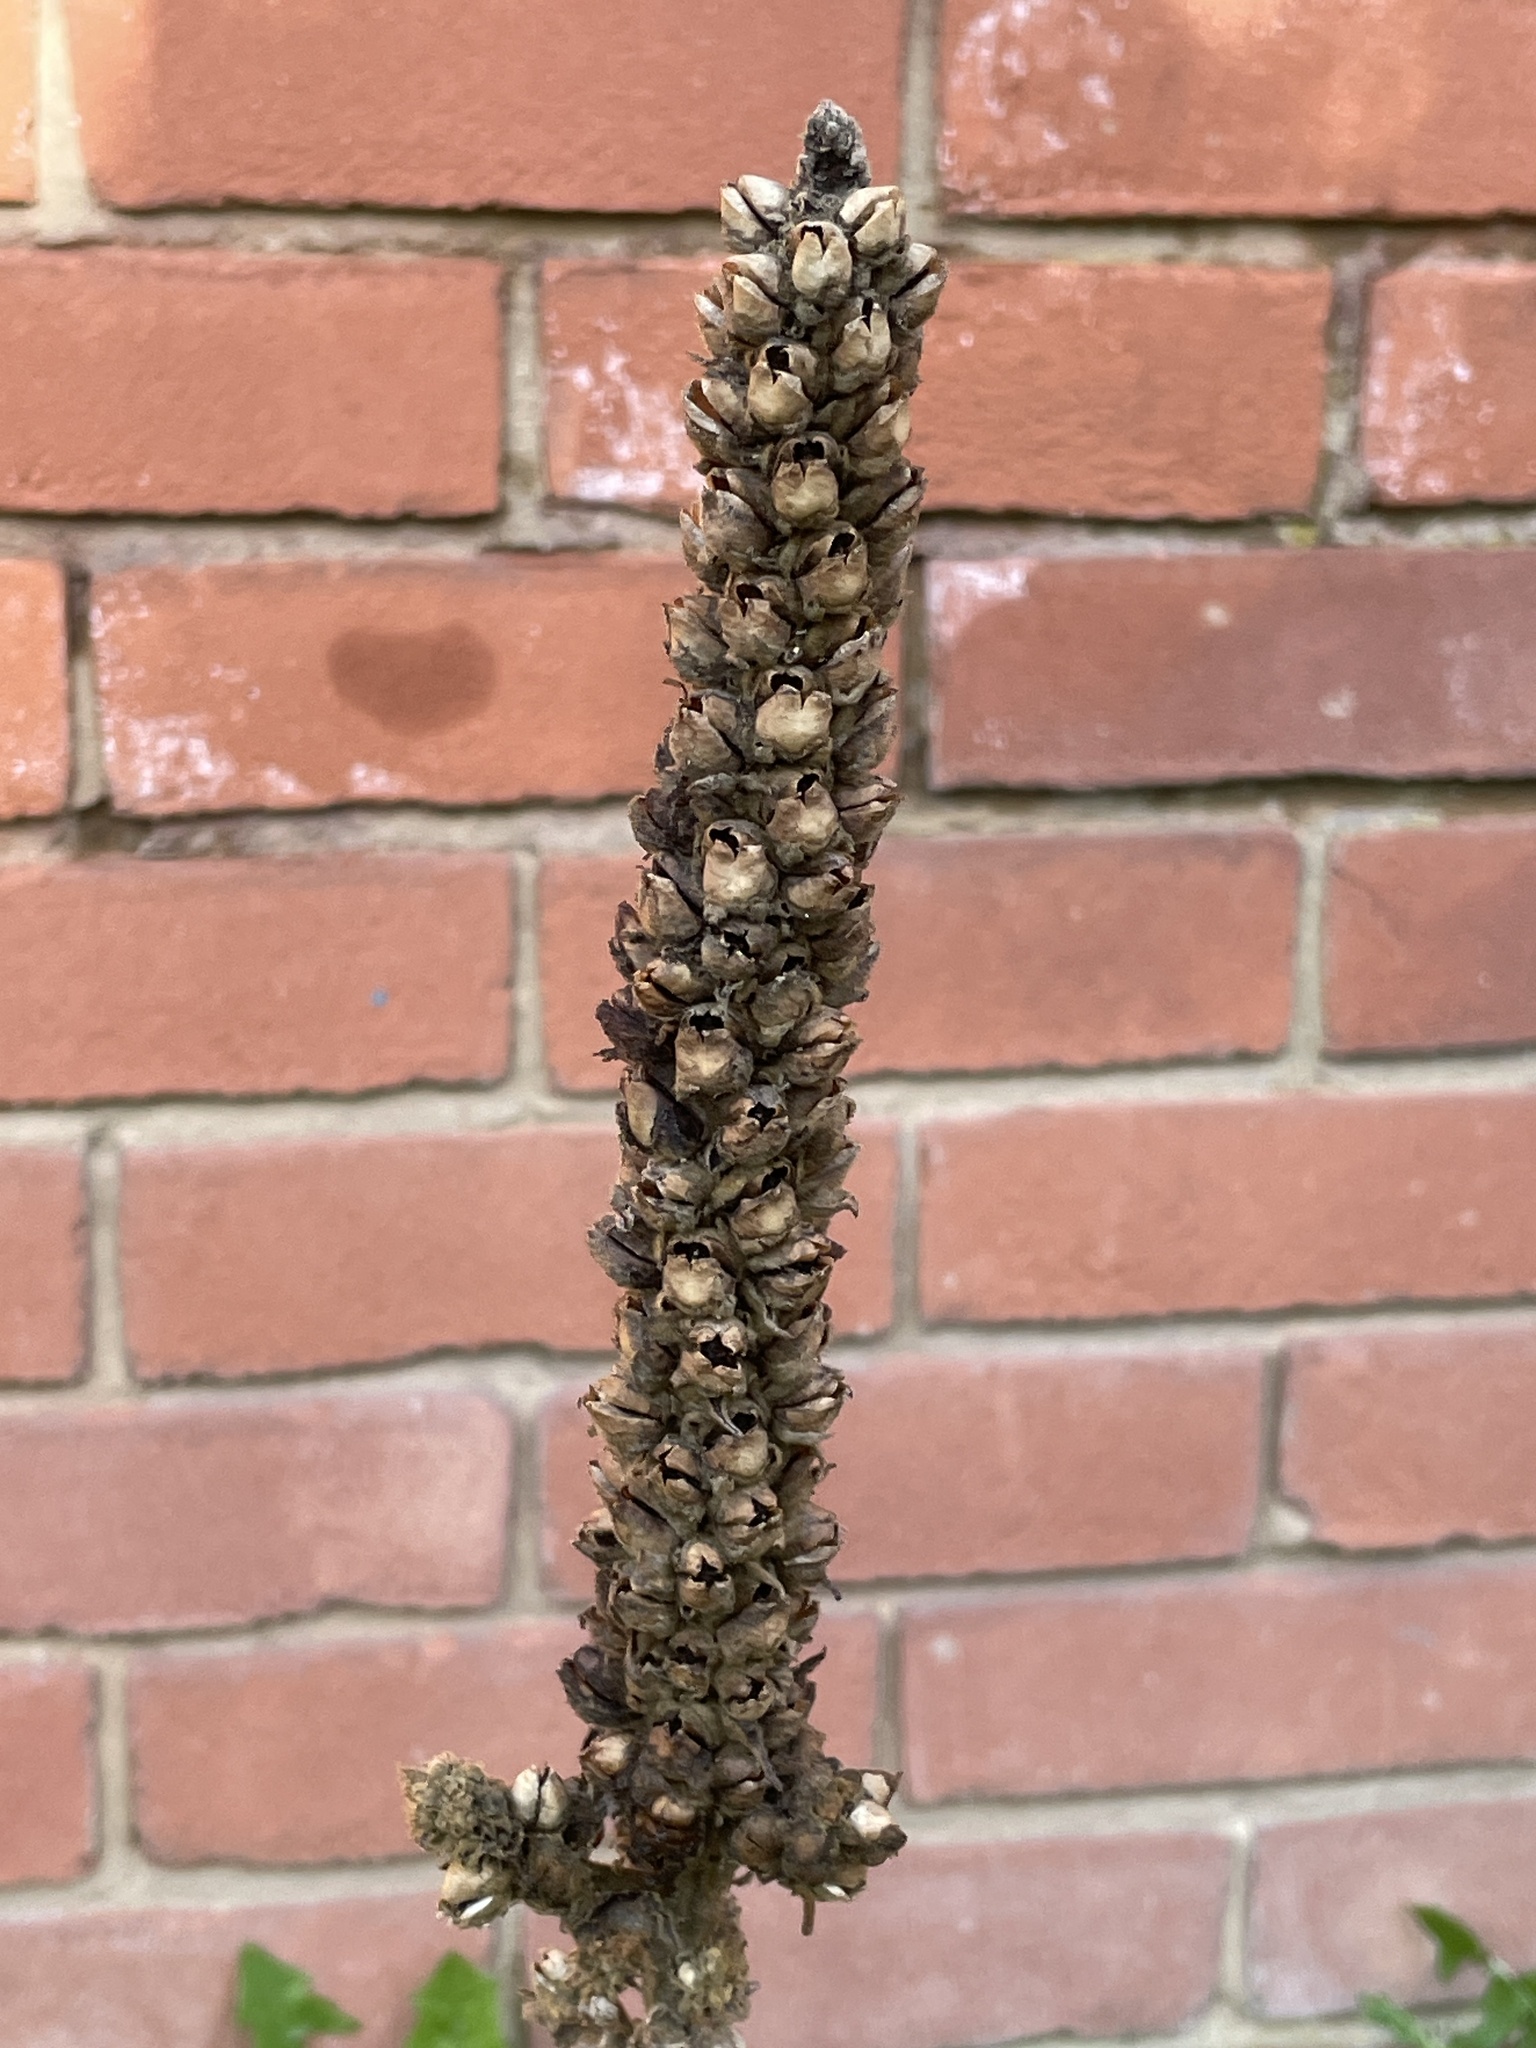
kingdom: Plantae
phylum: Tracheophyta
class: Magnoliopsida
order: Lamiales
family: Scrophulariaceae
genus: Verbascum
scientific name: Verbascum
